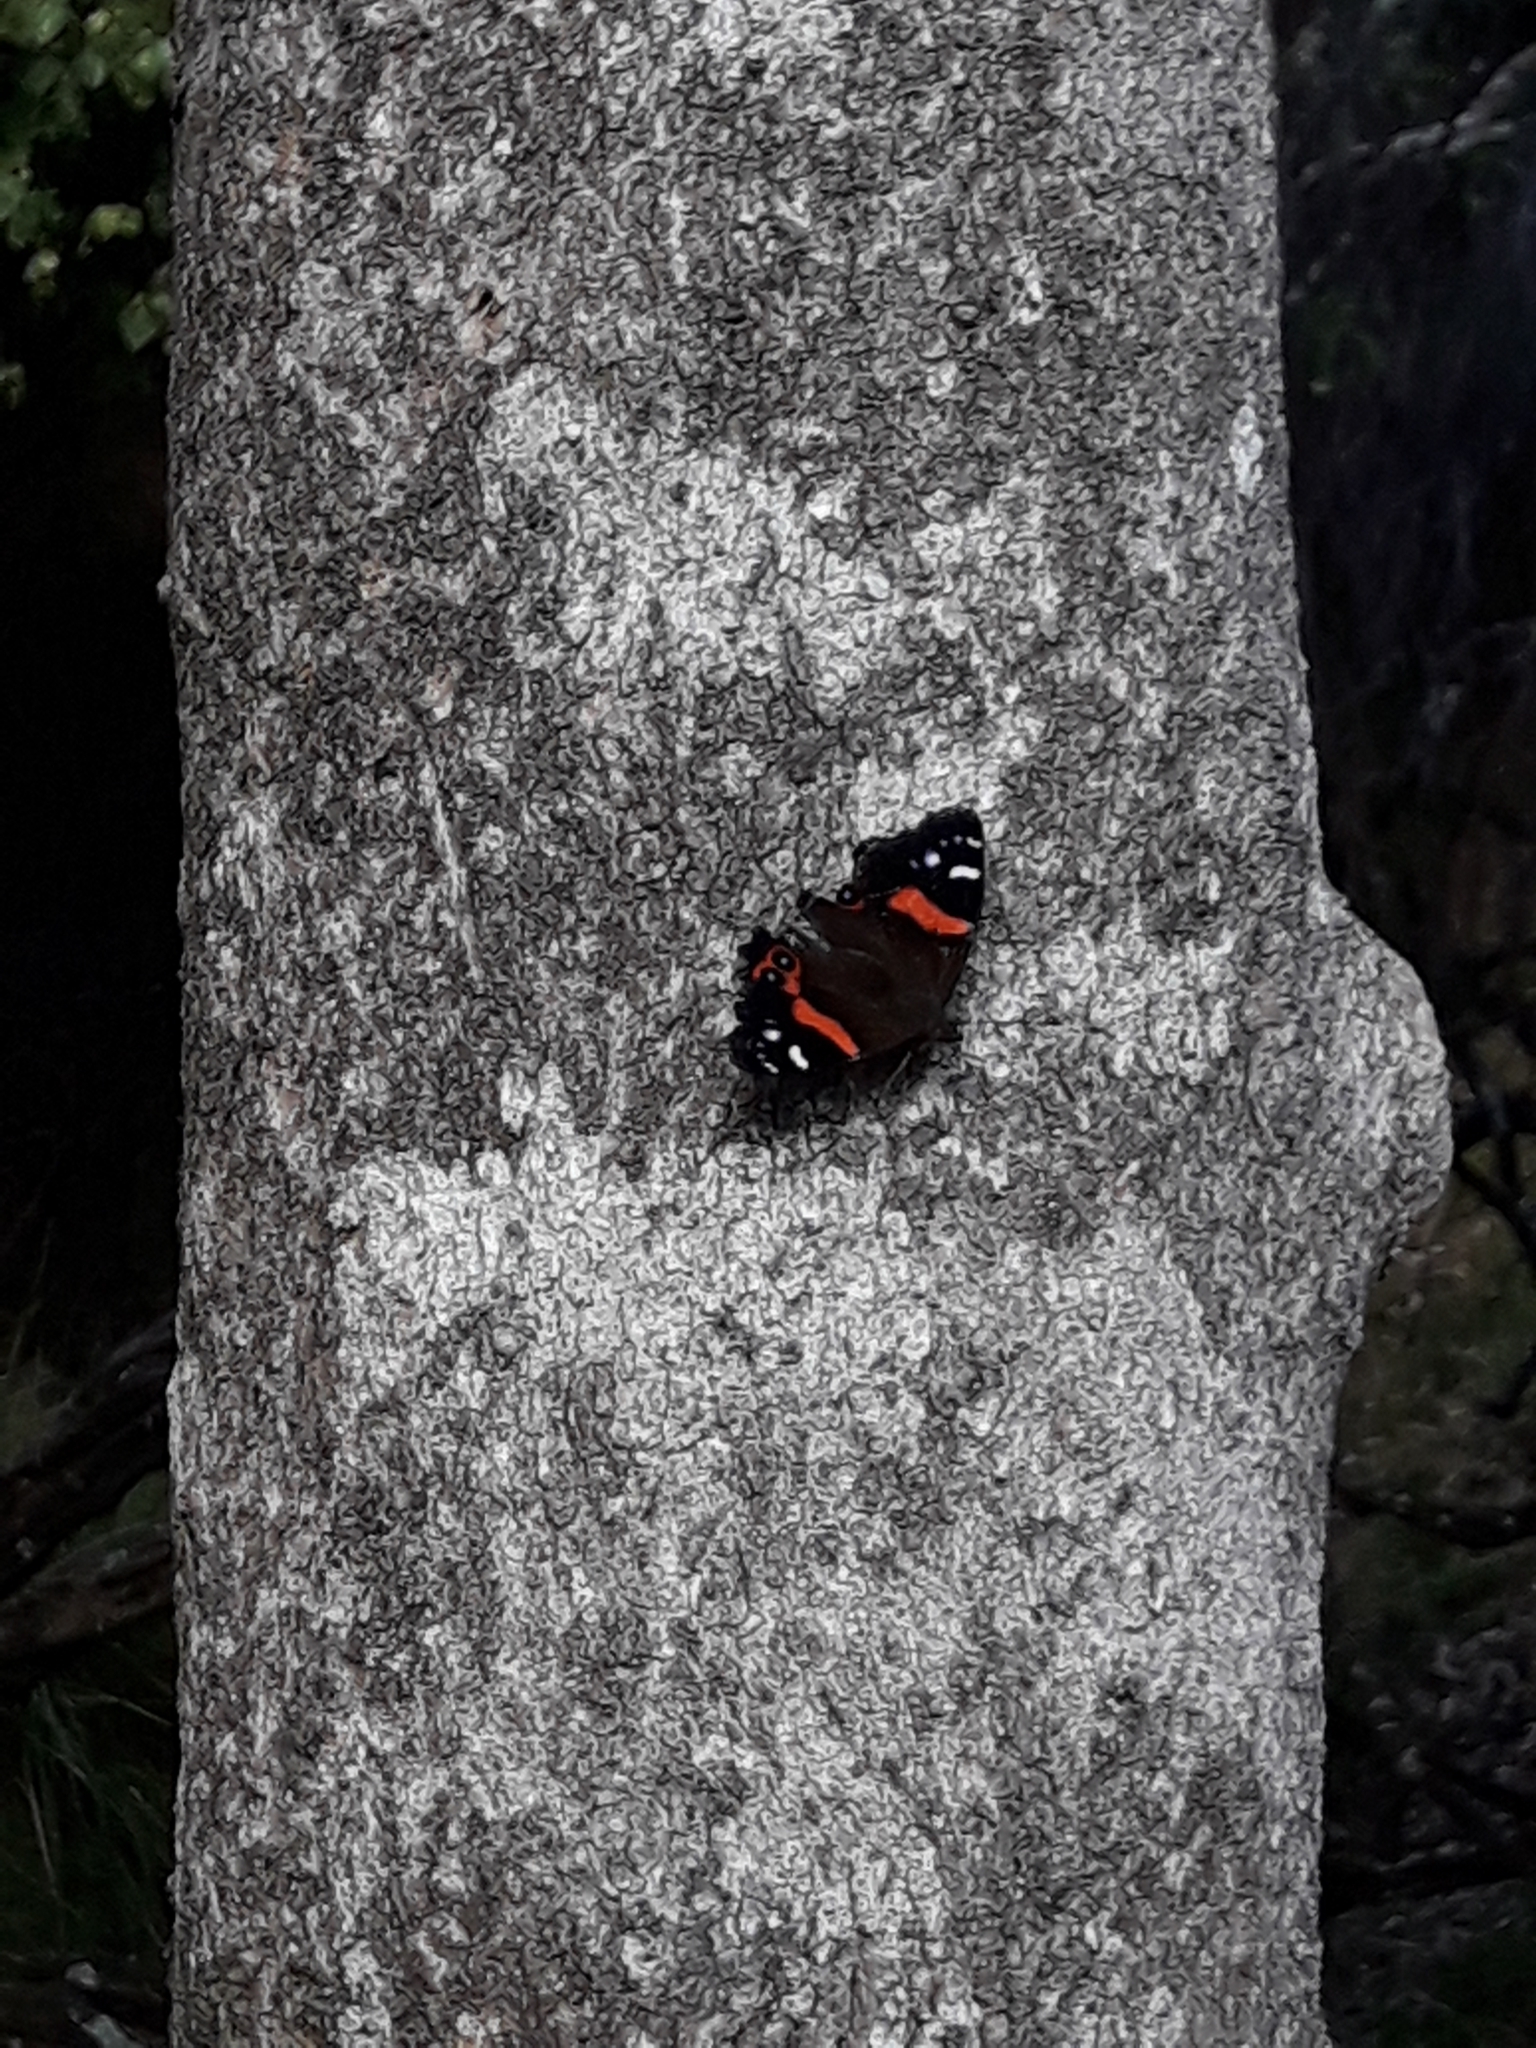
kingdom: Animalia
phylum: Arthropoda
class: Insecta
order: Lepidoptera
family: Nymphalidae
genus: Vanessa
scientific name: Vanessa gonerilla
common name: New zealand red admiral
